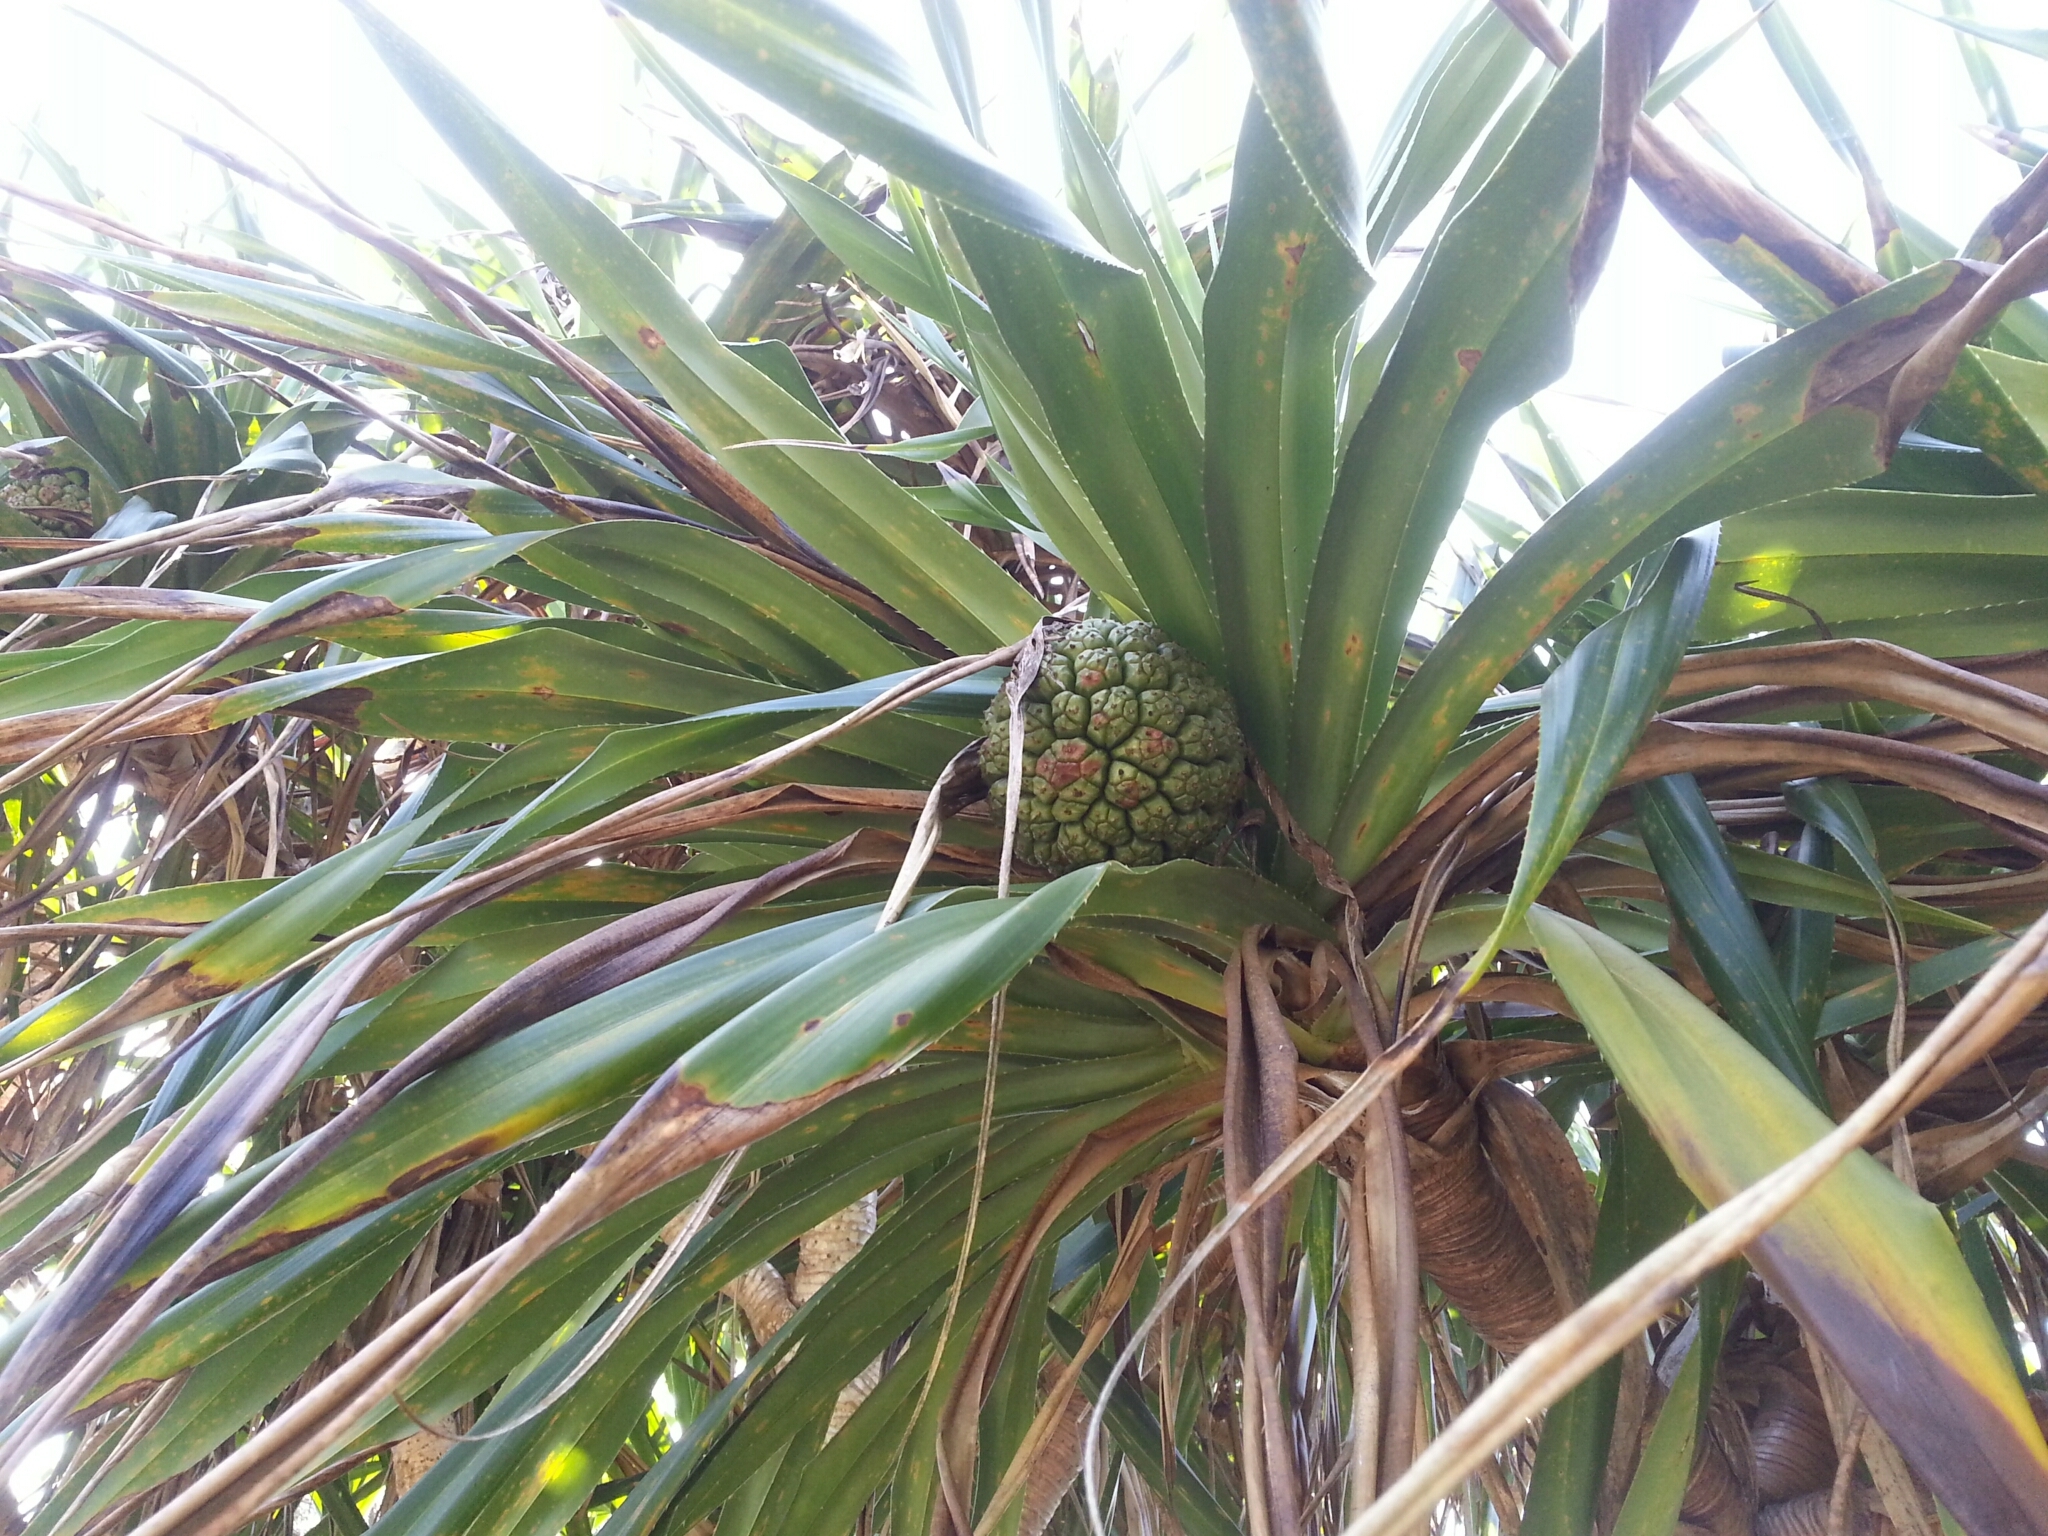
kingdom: Plantae
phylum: Tracheophyta
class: Liliopsida
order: Pandanales
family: Pandanaceae
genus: Pandanus
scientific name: Pandanus odorifer
